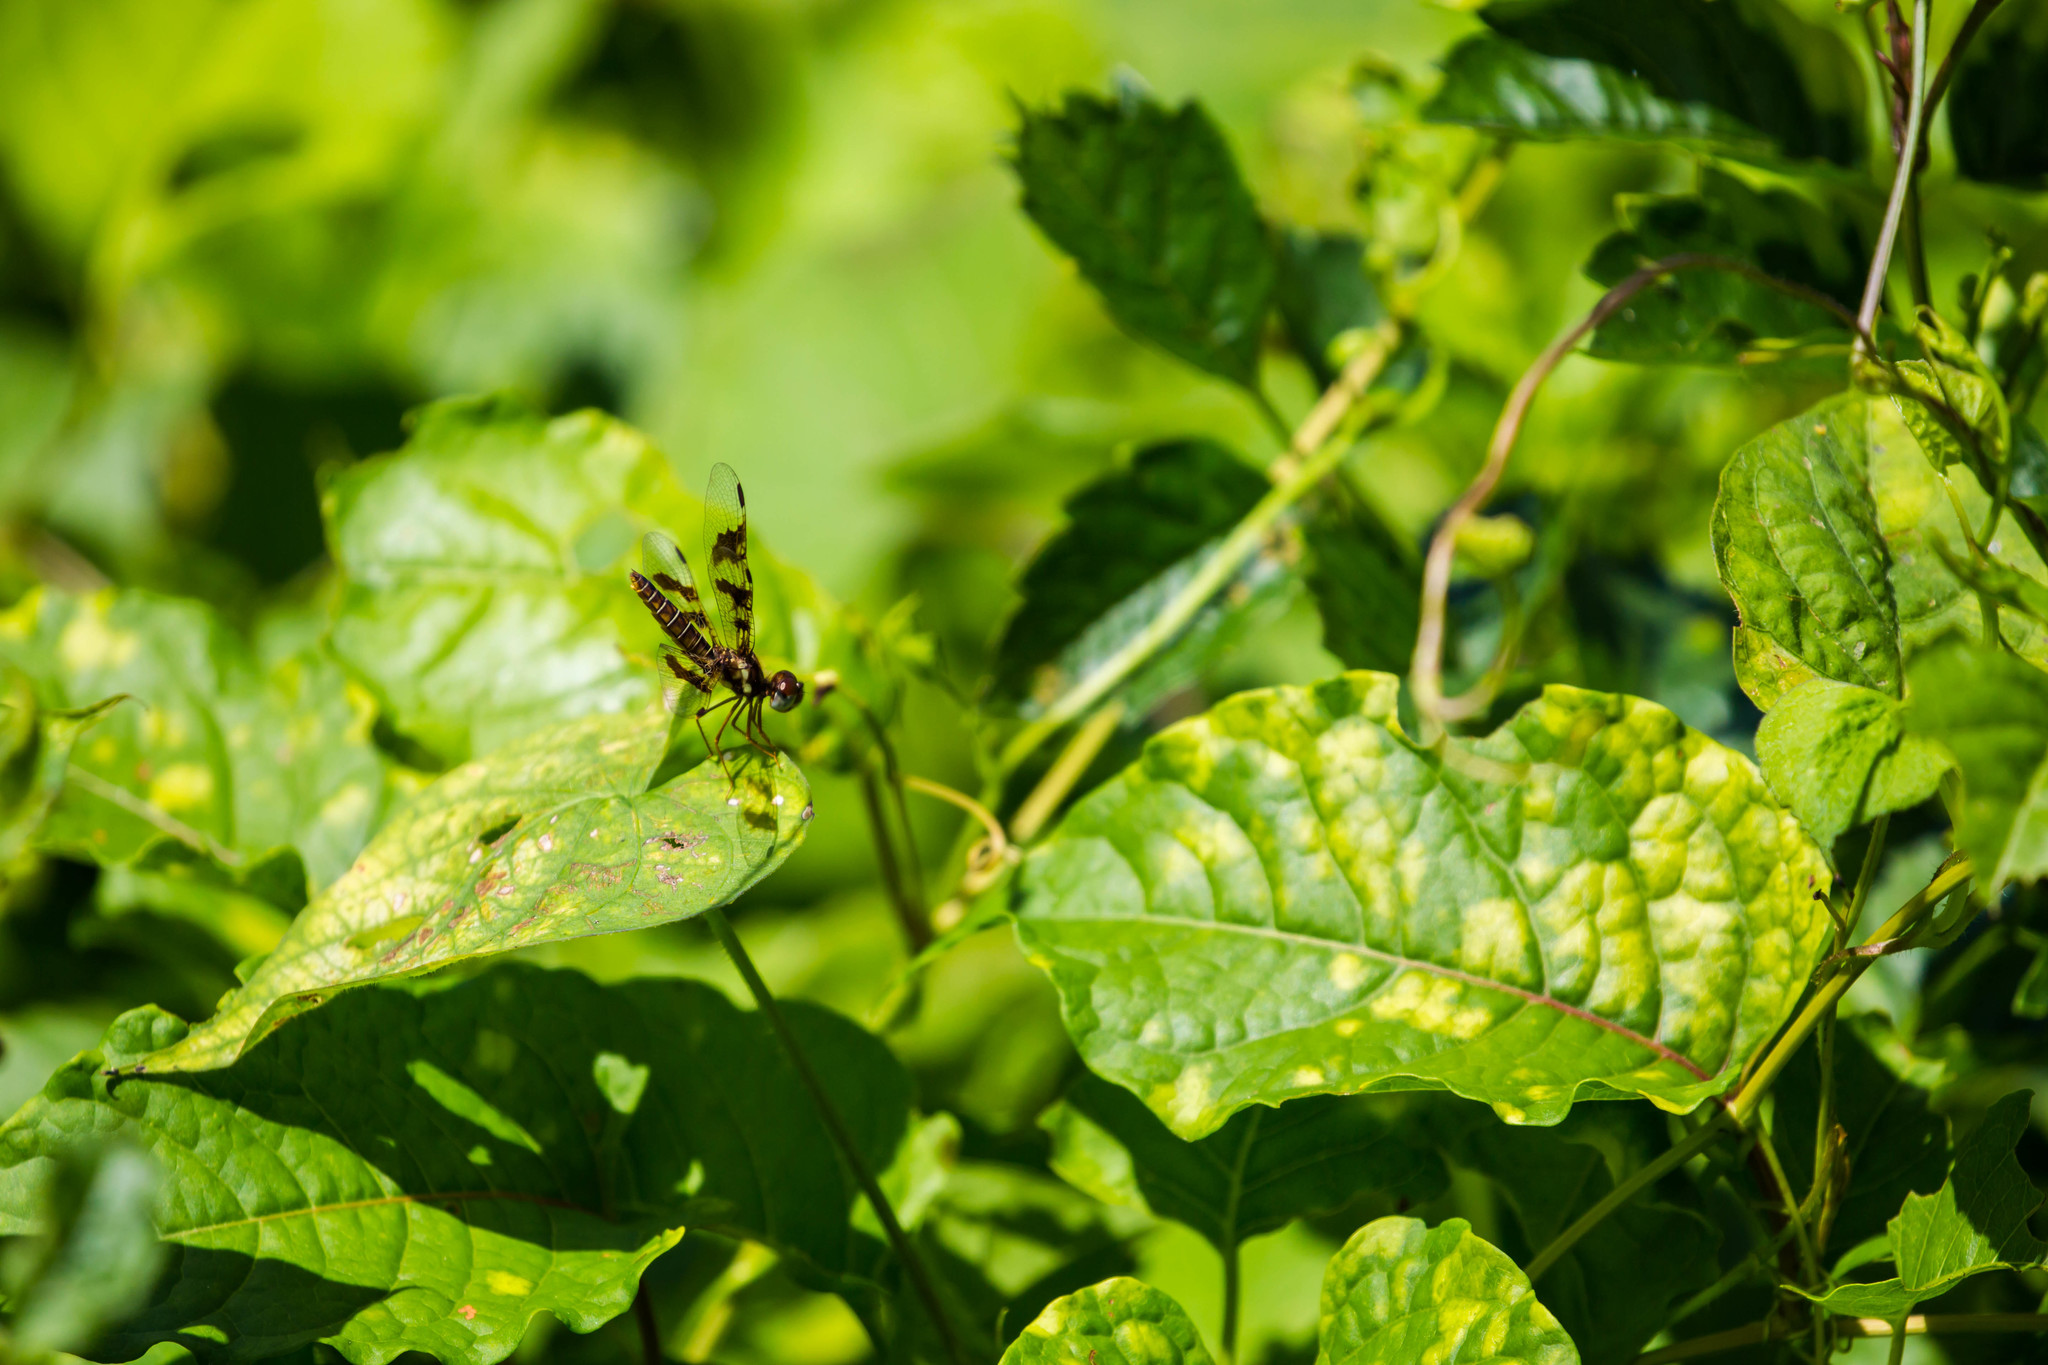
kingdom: Animalia
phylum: Arthropoda
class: Insecta
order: Odonata
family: Libellulidae
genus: Perithemis
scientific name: Perithemis tenera
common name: Eastern amberwing
